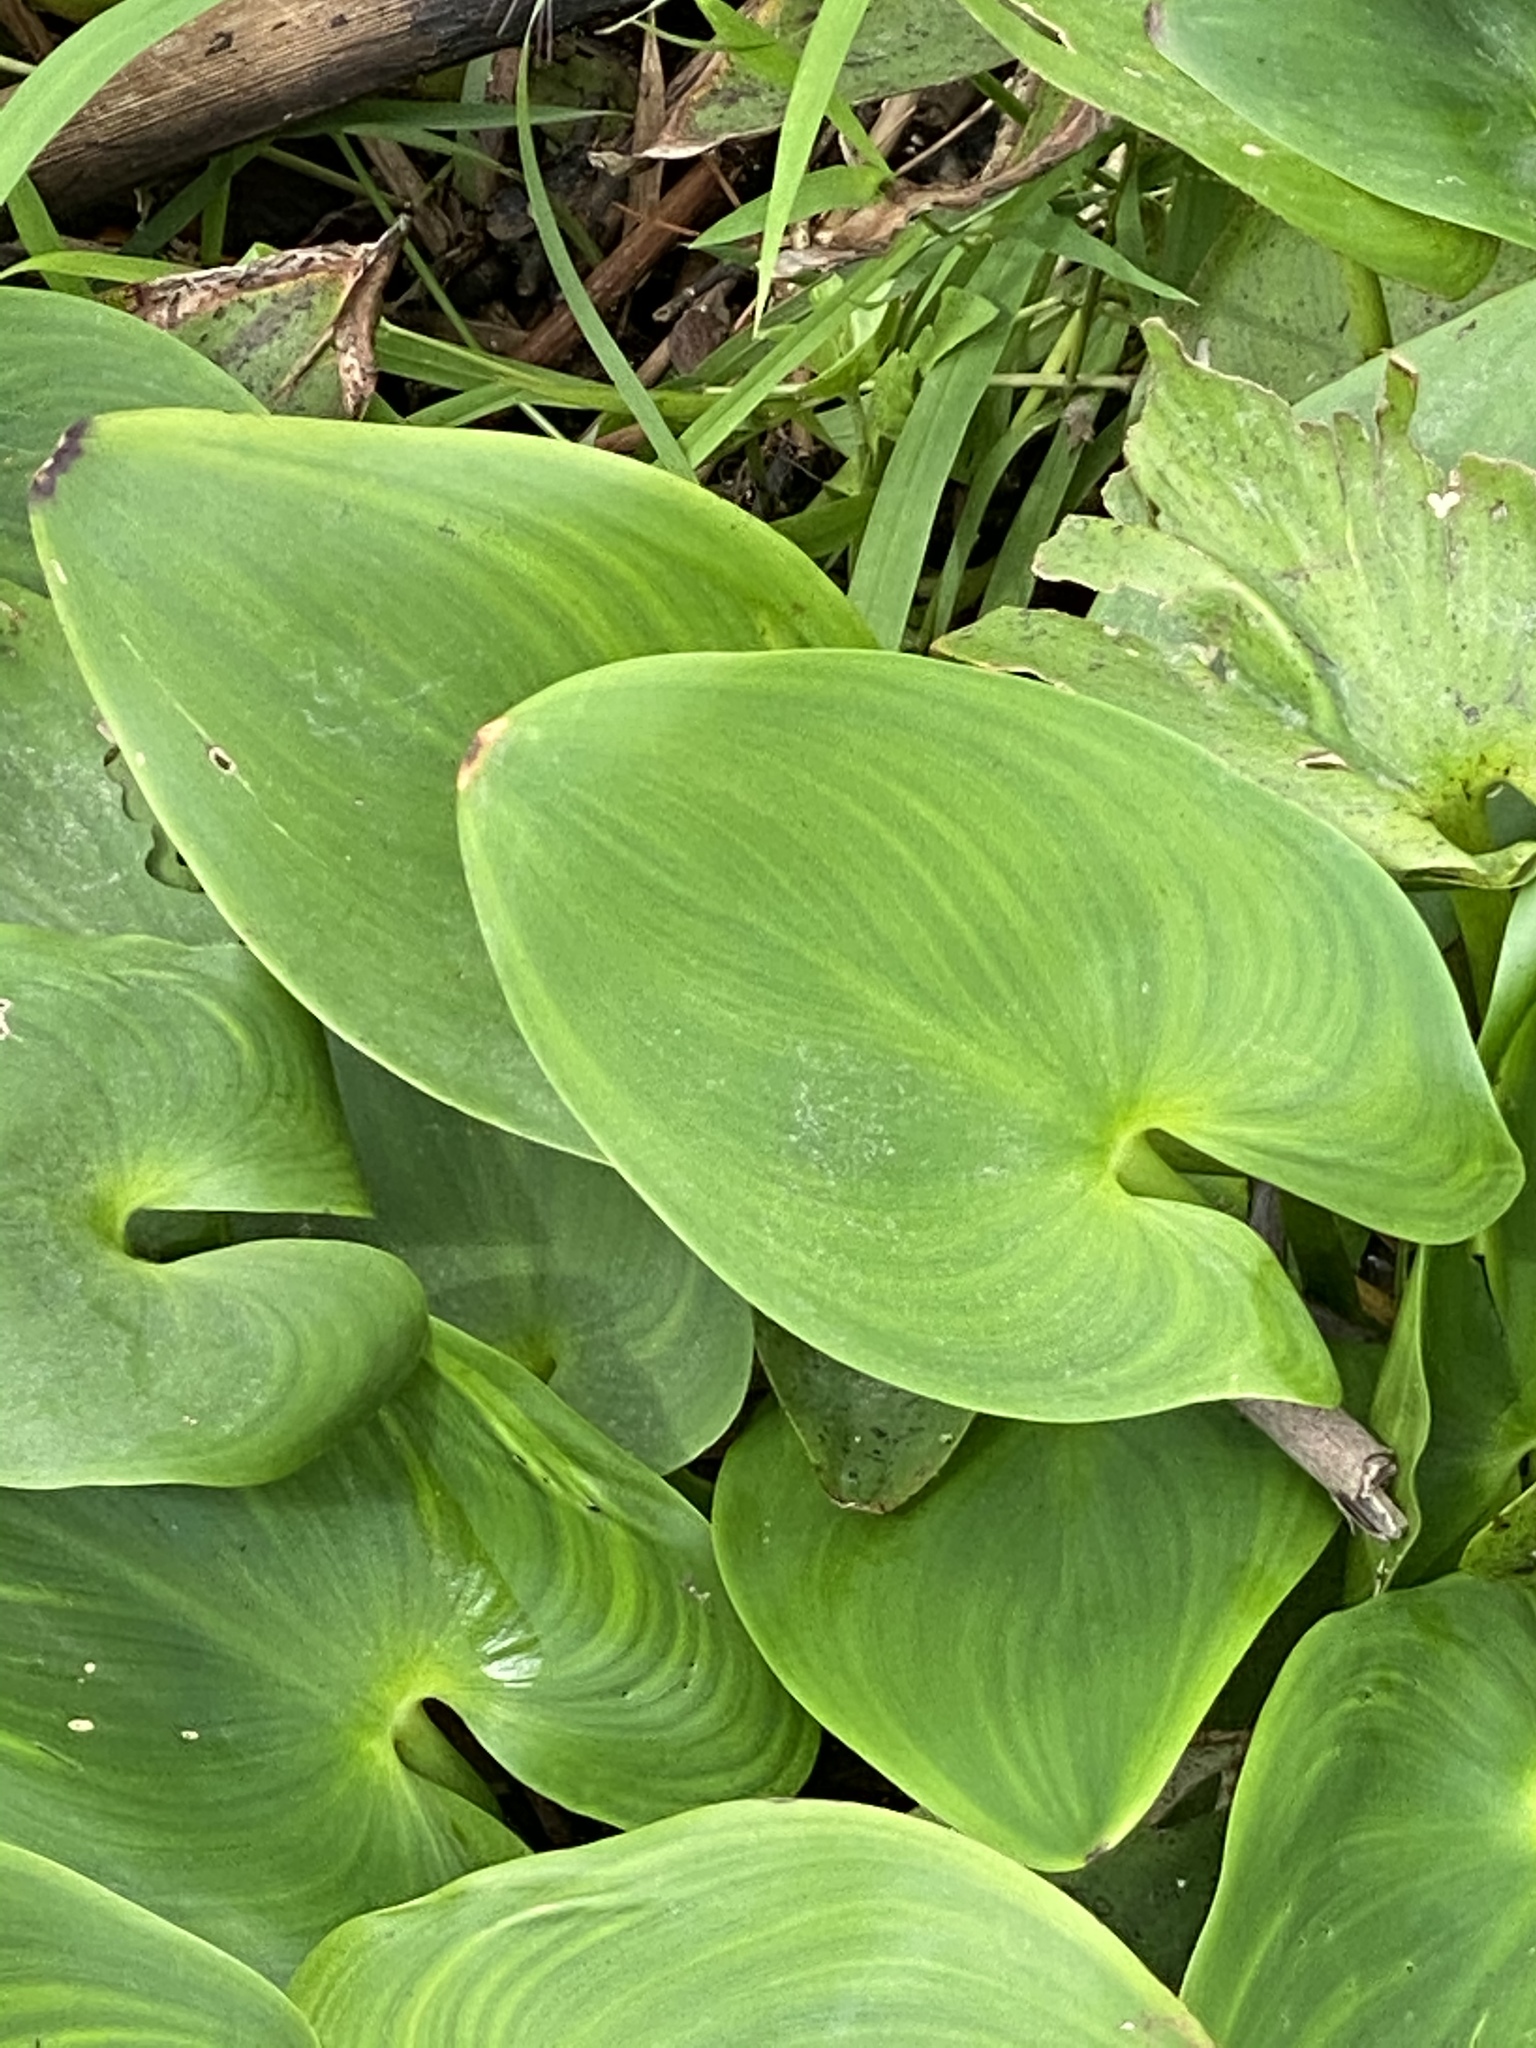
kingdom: Plantae
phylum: Tracheophyta
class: Liliopsida
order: Commelinales
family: Pontederiaceae
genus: Pontederia
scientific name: Pontederia cordata
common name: Pickerelweed
